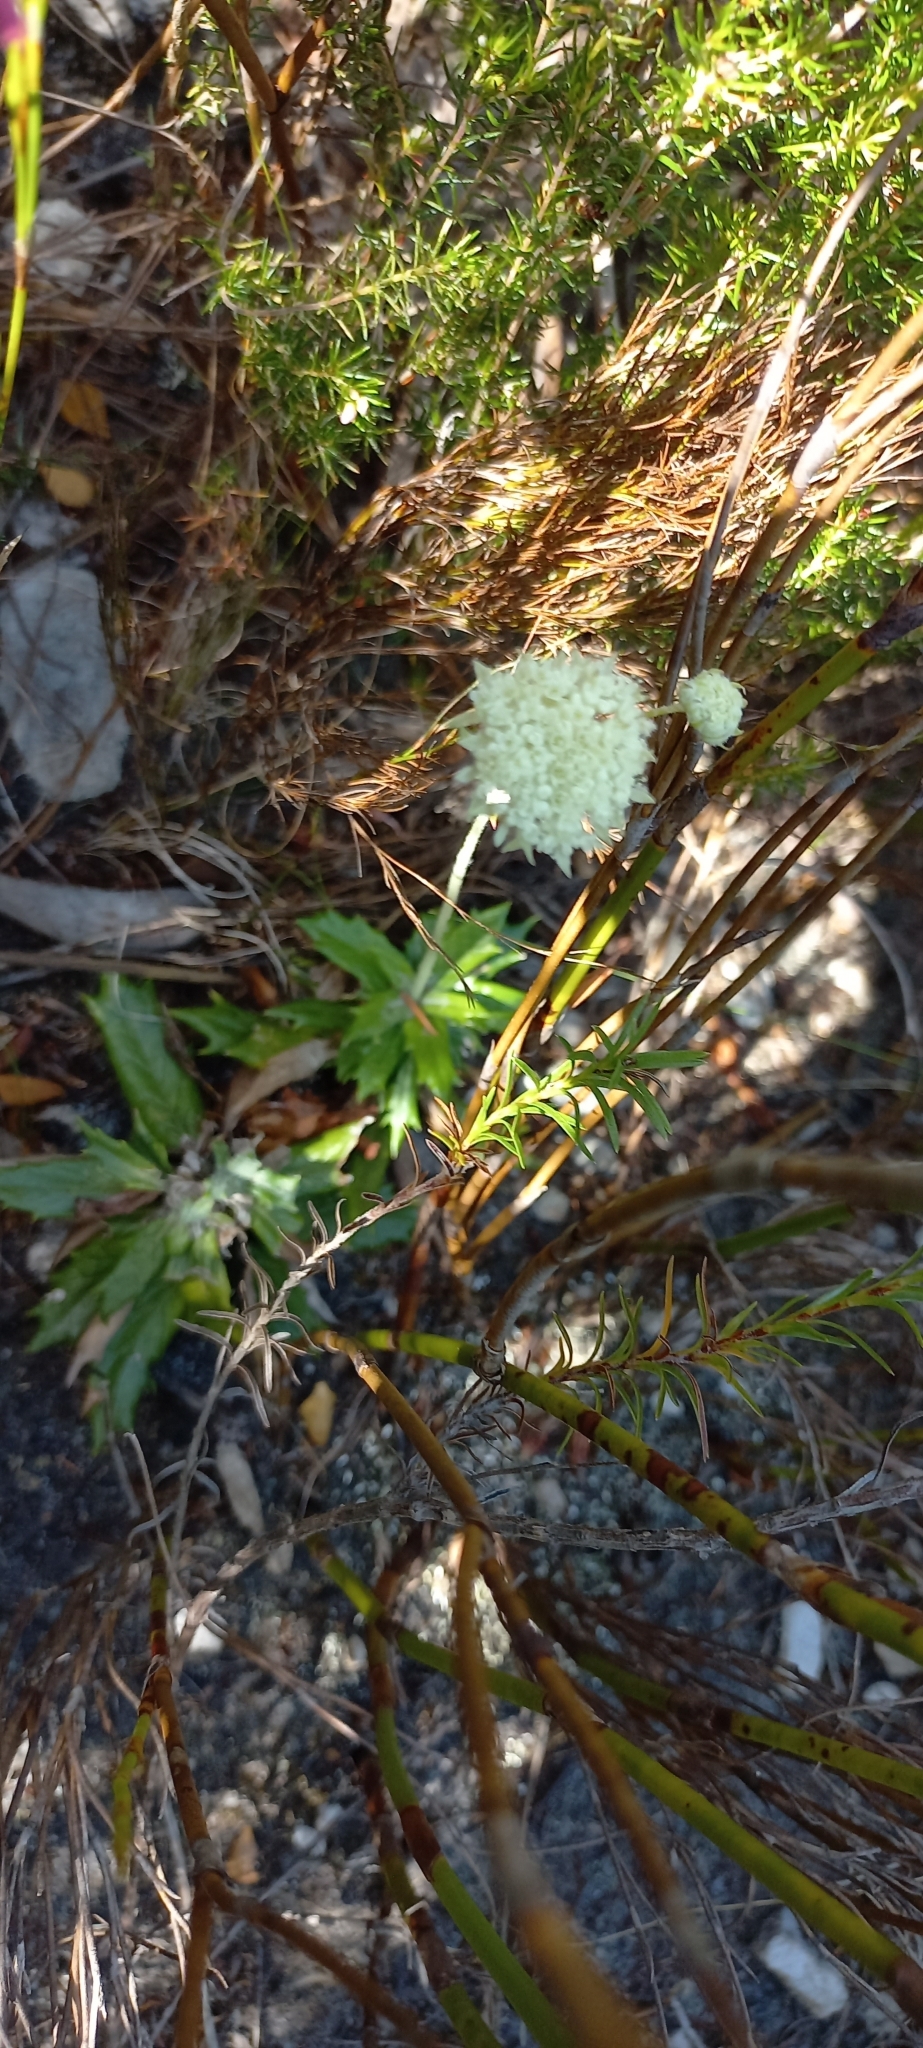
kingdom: Plantae
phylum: Tracheophyta
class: Magnoliopsida
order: Apiales
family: Apiaceae
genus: Hermas
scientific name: Hermas quinquedentata
